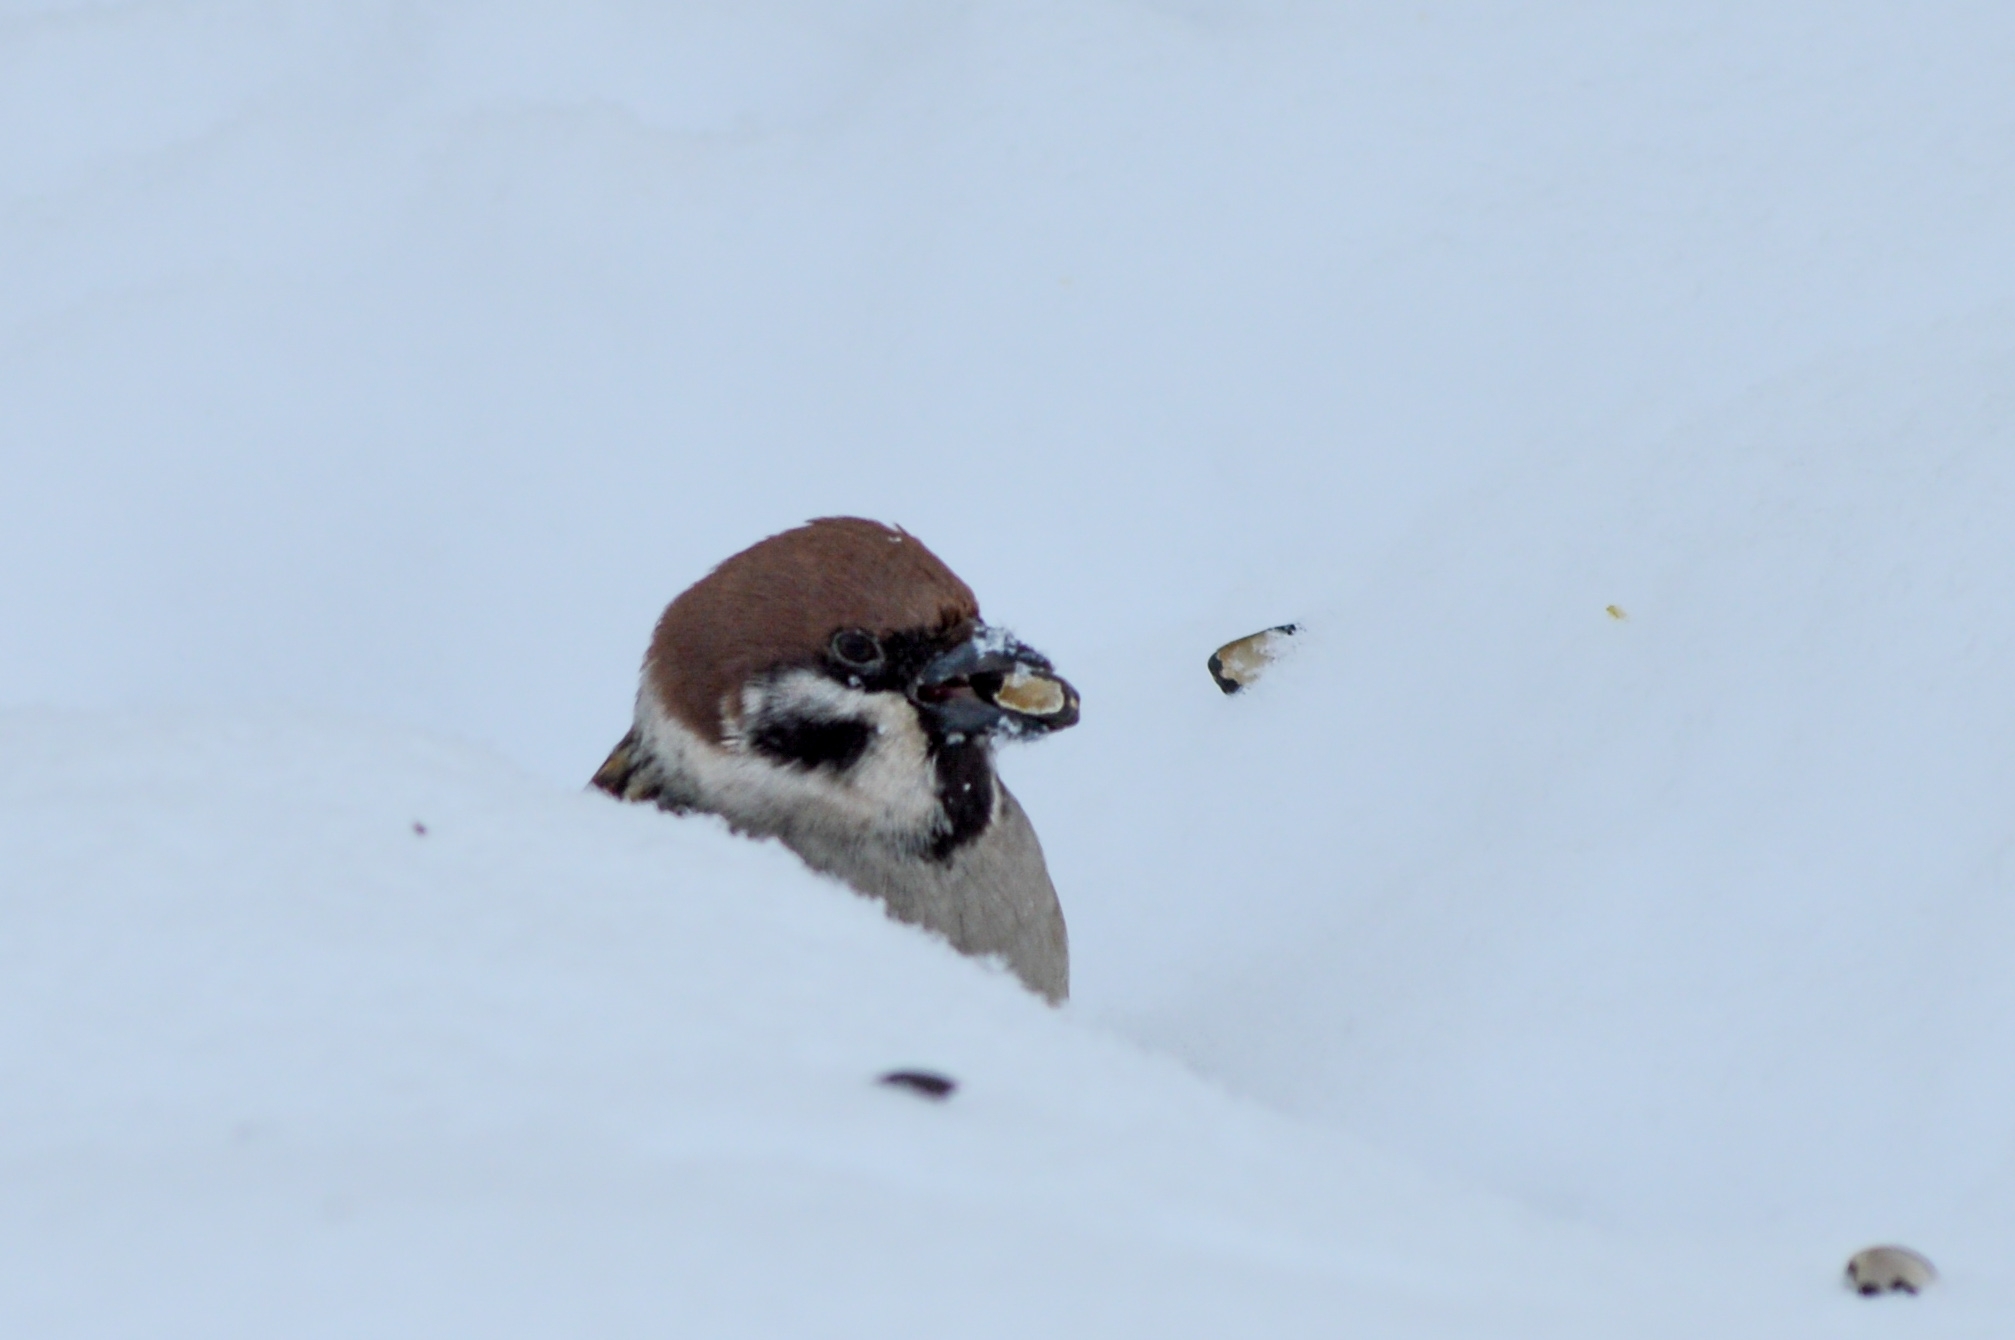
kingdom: Animalia
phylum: Chordata
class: Aves
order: Passeriformes
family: Passeridae
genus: Passer
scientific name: Passer montanus
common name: Eurasian tree sparrow
